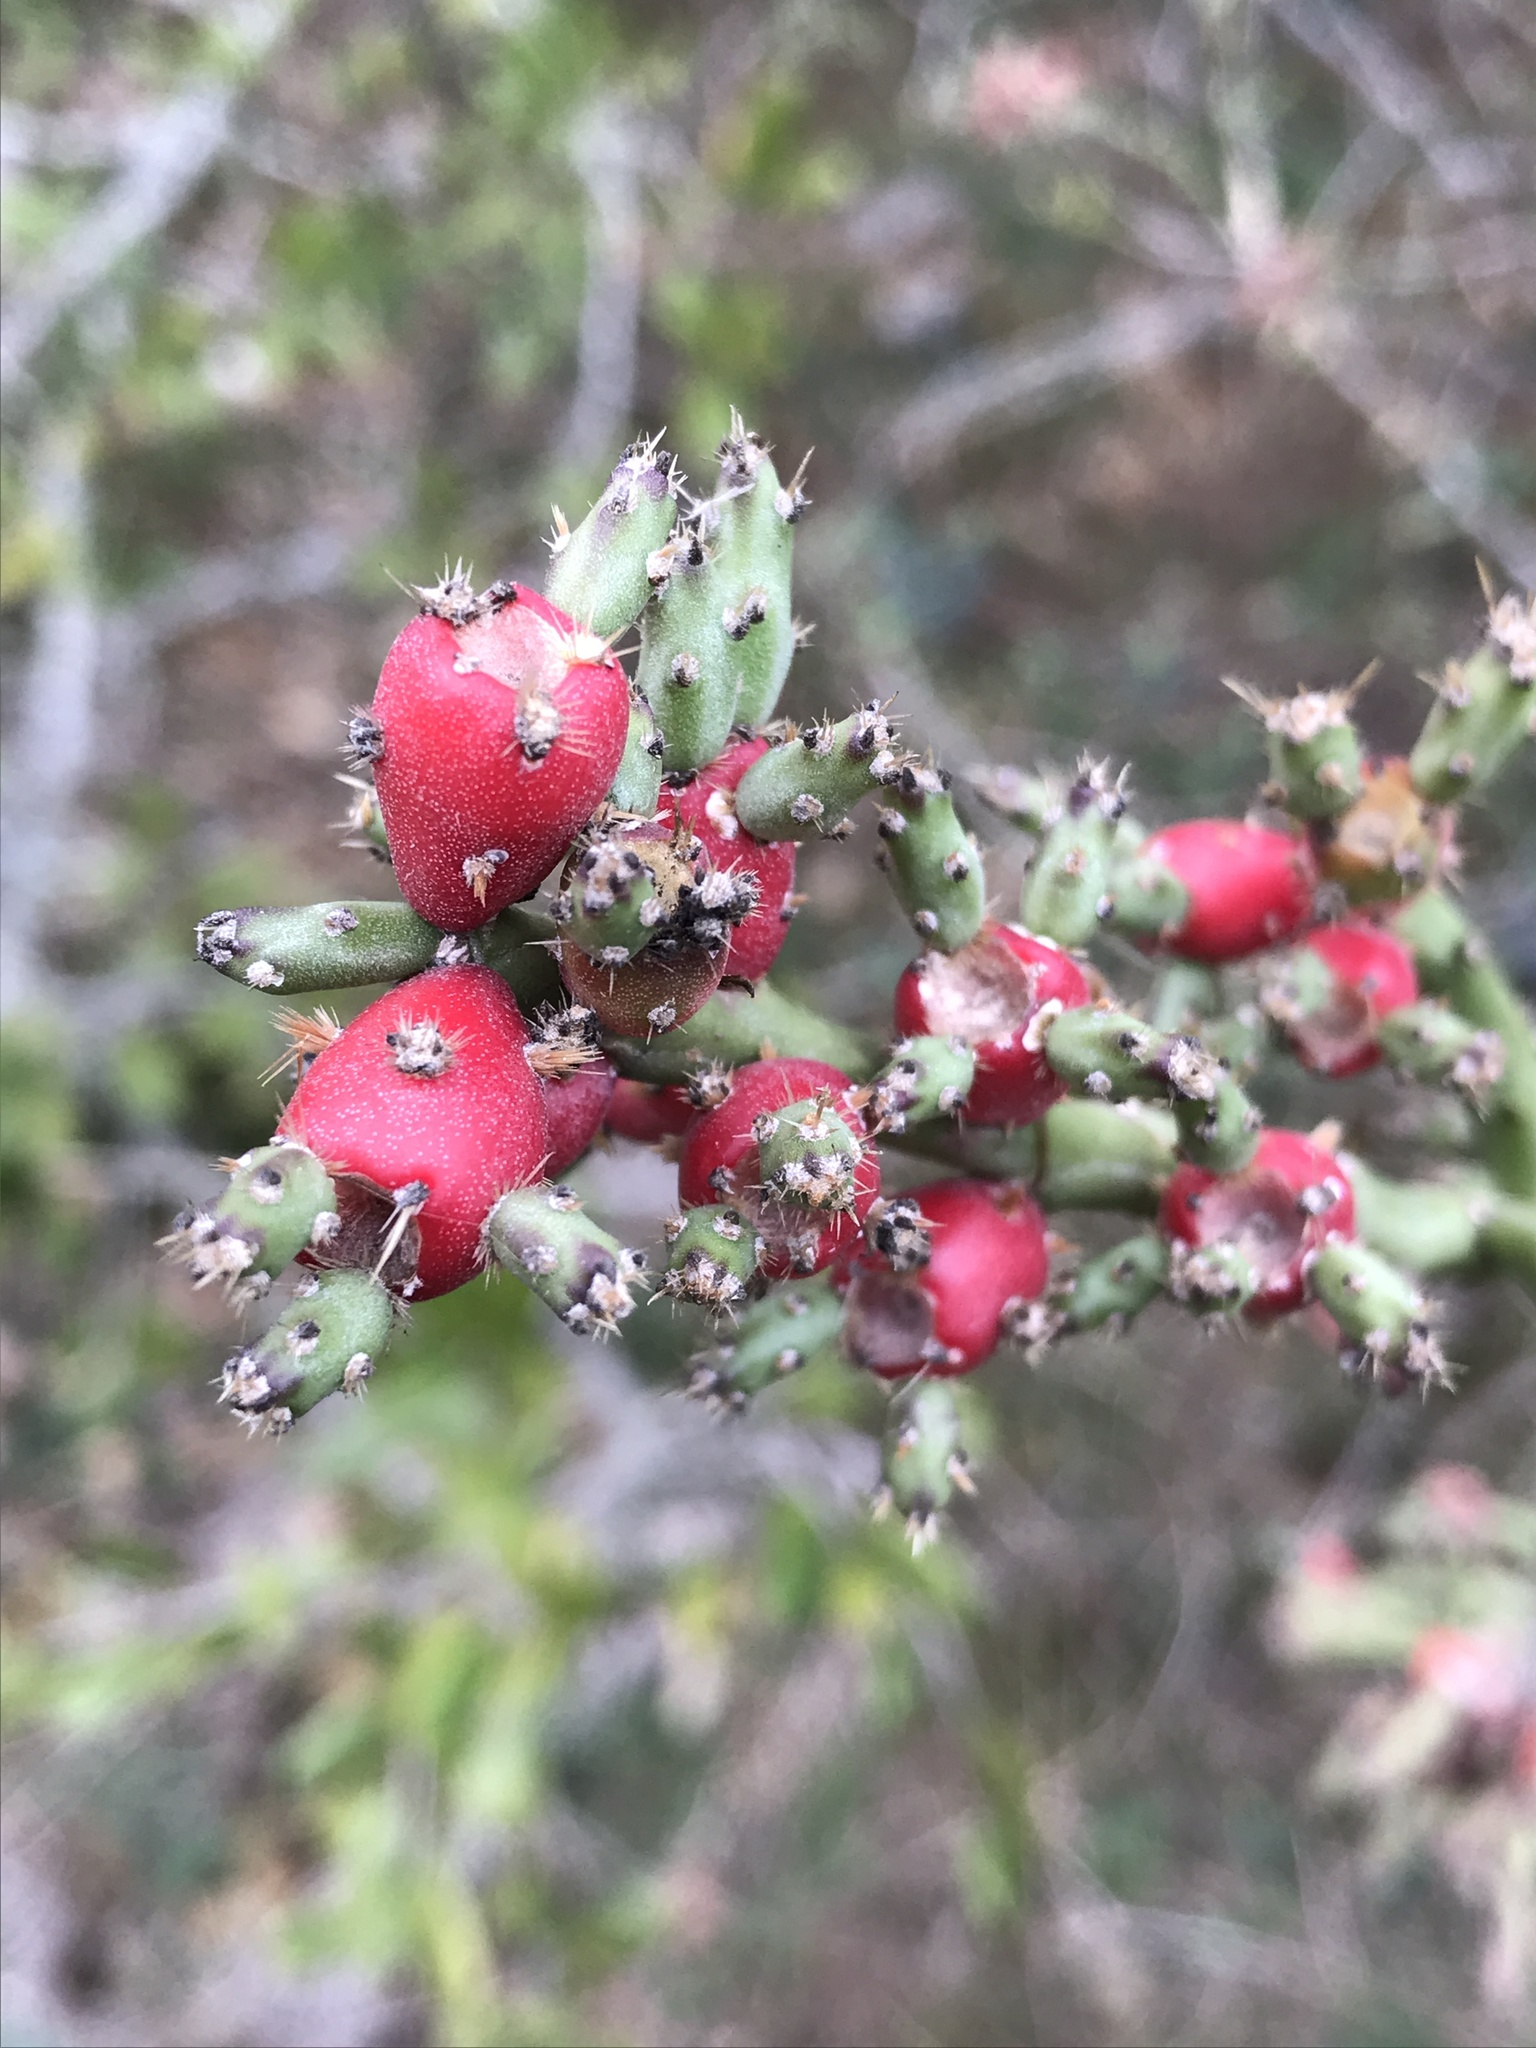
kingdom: Plantae
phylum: Tracheophyta
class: Magnoliopsida
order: Caryophyllales
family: Cactaceae
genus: Cylindropuntia
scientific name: Cylindropuntia leptocaulis
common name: Christmas cactus
